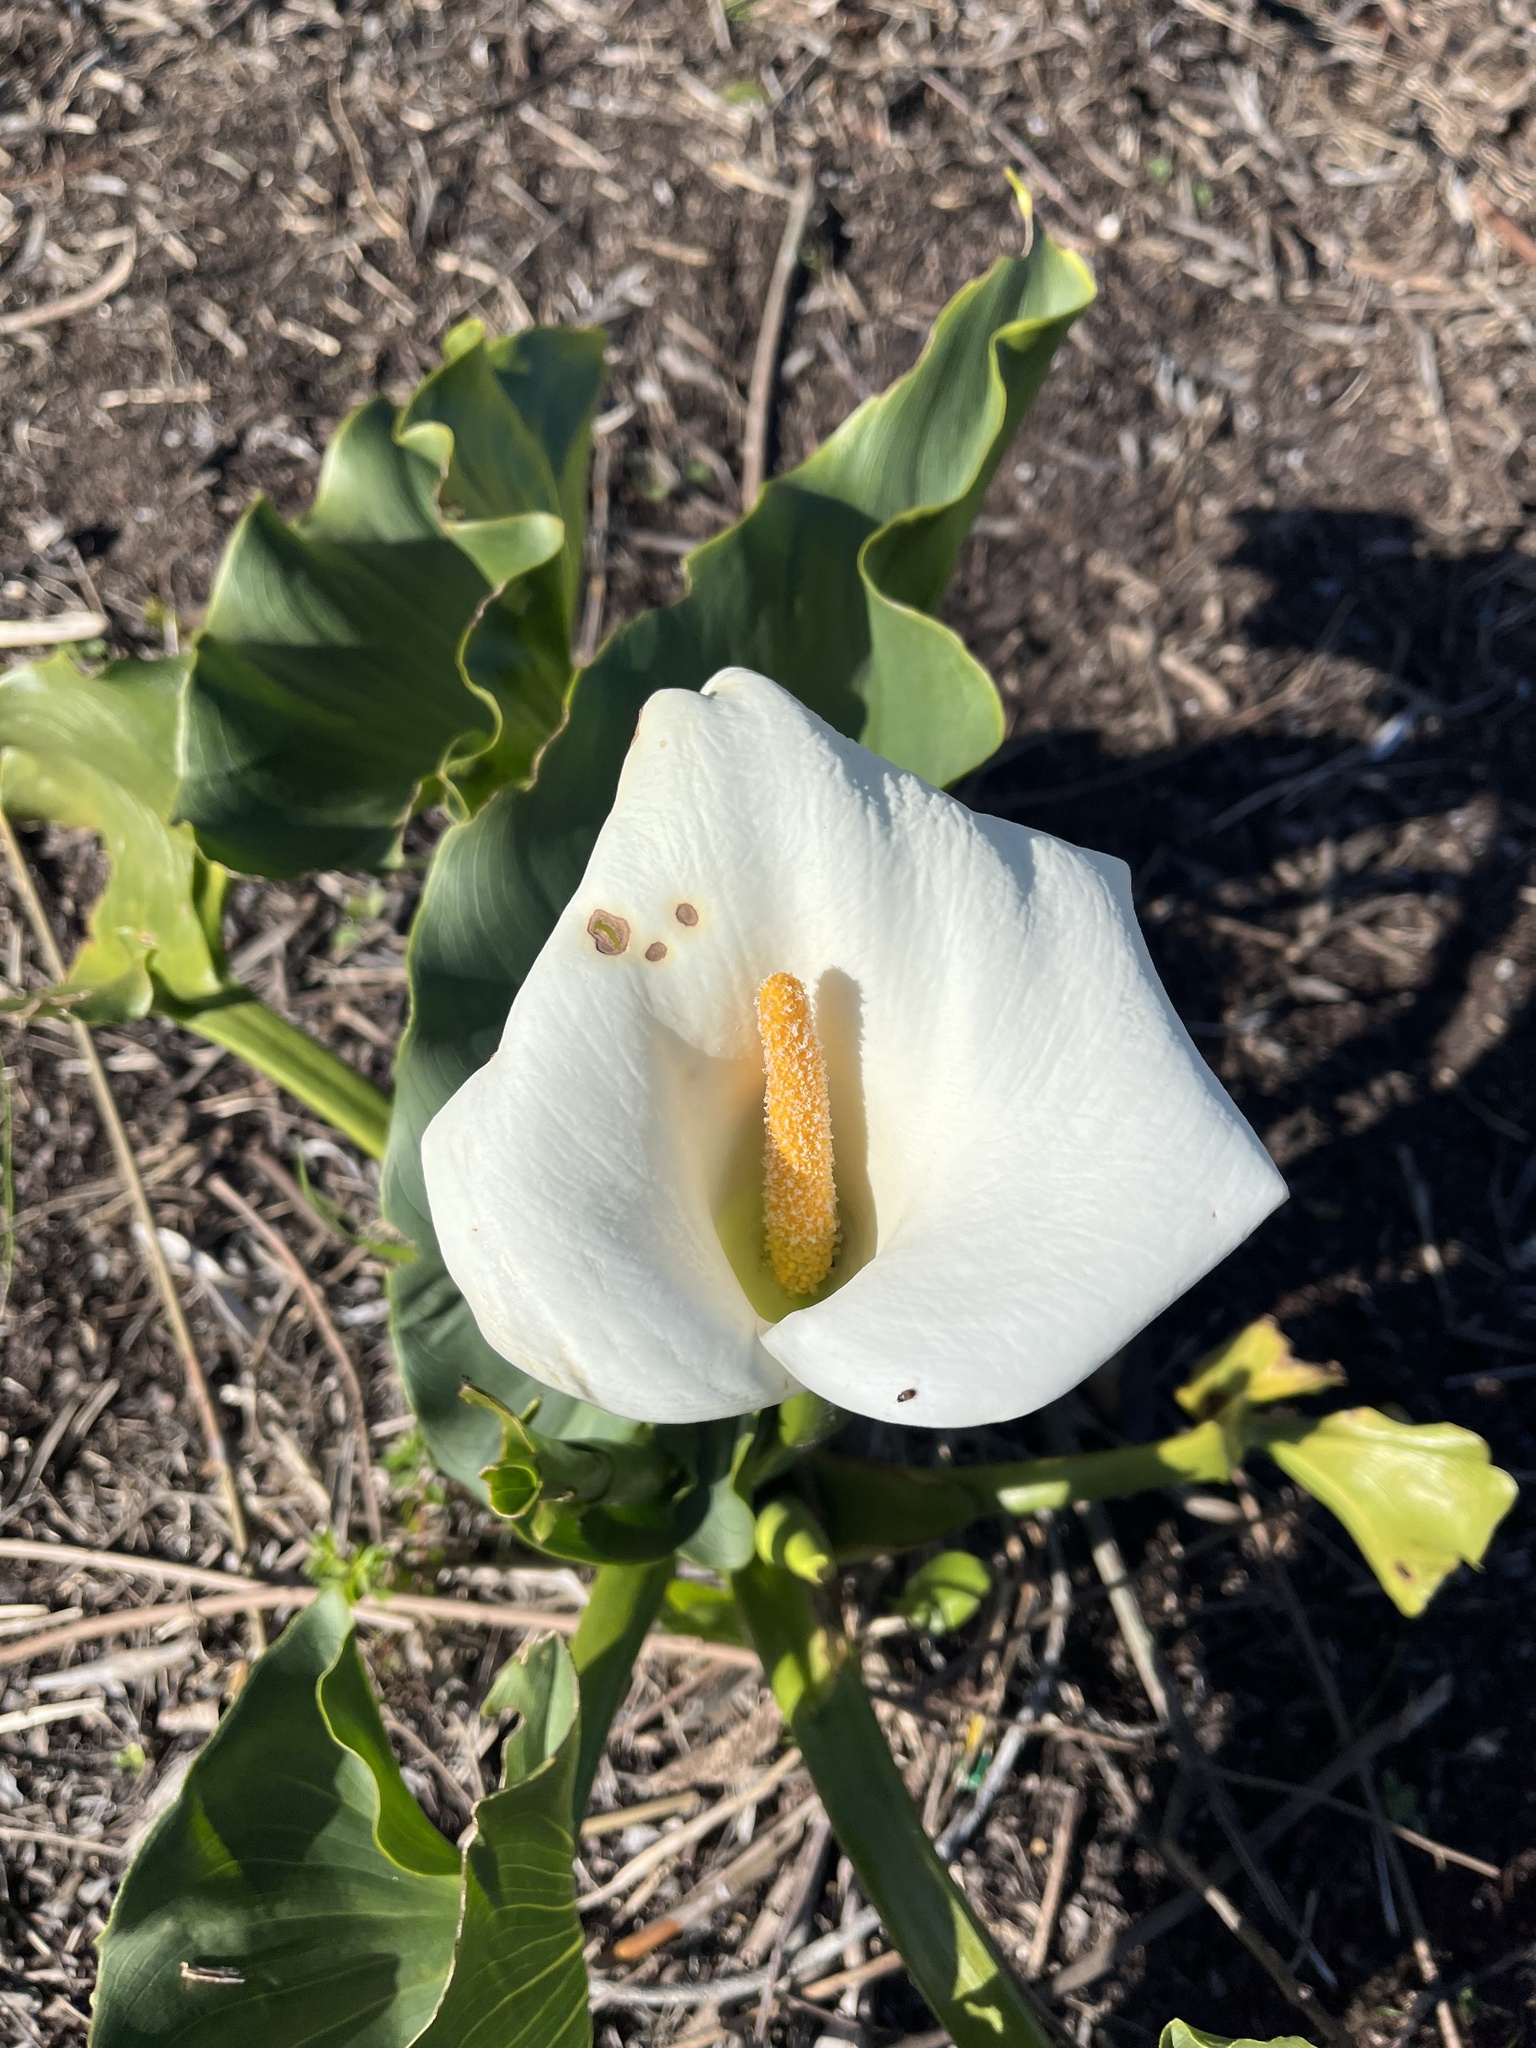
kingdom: Plantae
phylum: Tracheophyta
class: Liliopsida
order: Alismatales
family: Araceae
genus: Zantedeschia
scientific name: Zantedeschia aethiopica
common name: Altar-lily
